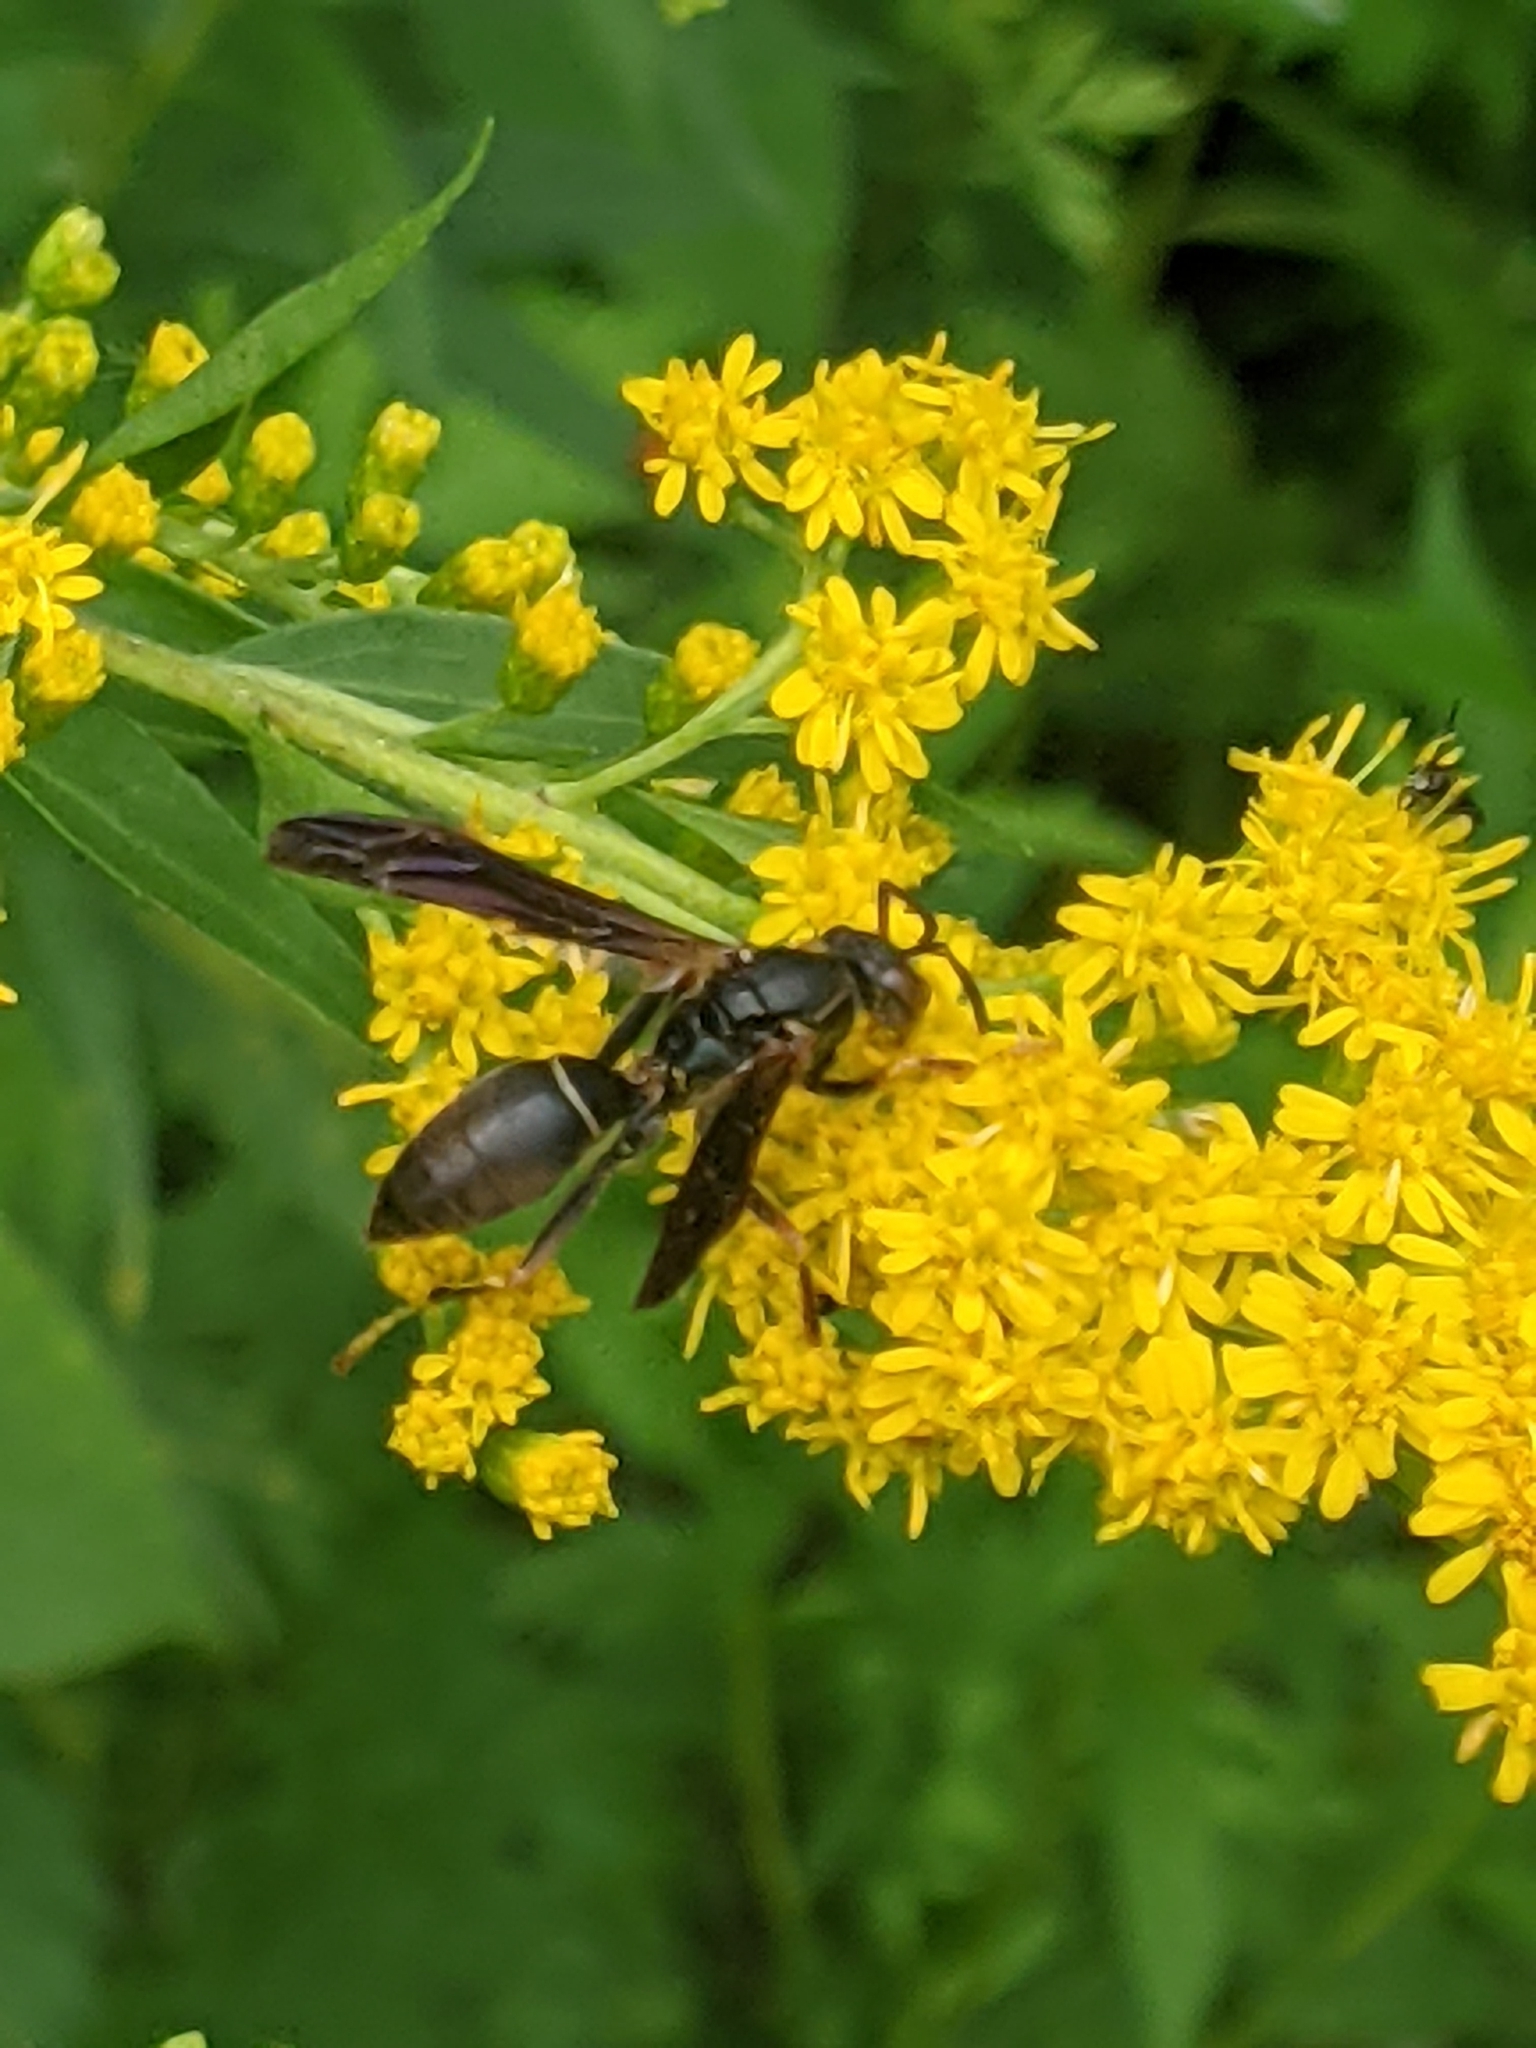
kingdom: Animalia
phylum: Arthropoda
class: Insecta
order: Hymenoptera
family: Eumenidae
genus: Polistes
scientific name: Polistes fuscatus
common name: Dark paper wasp
